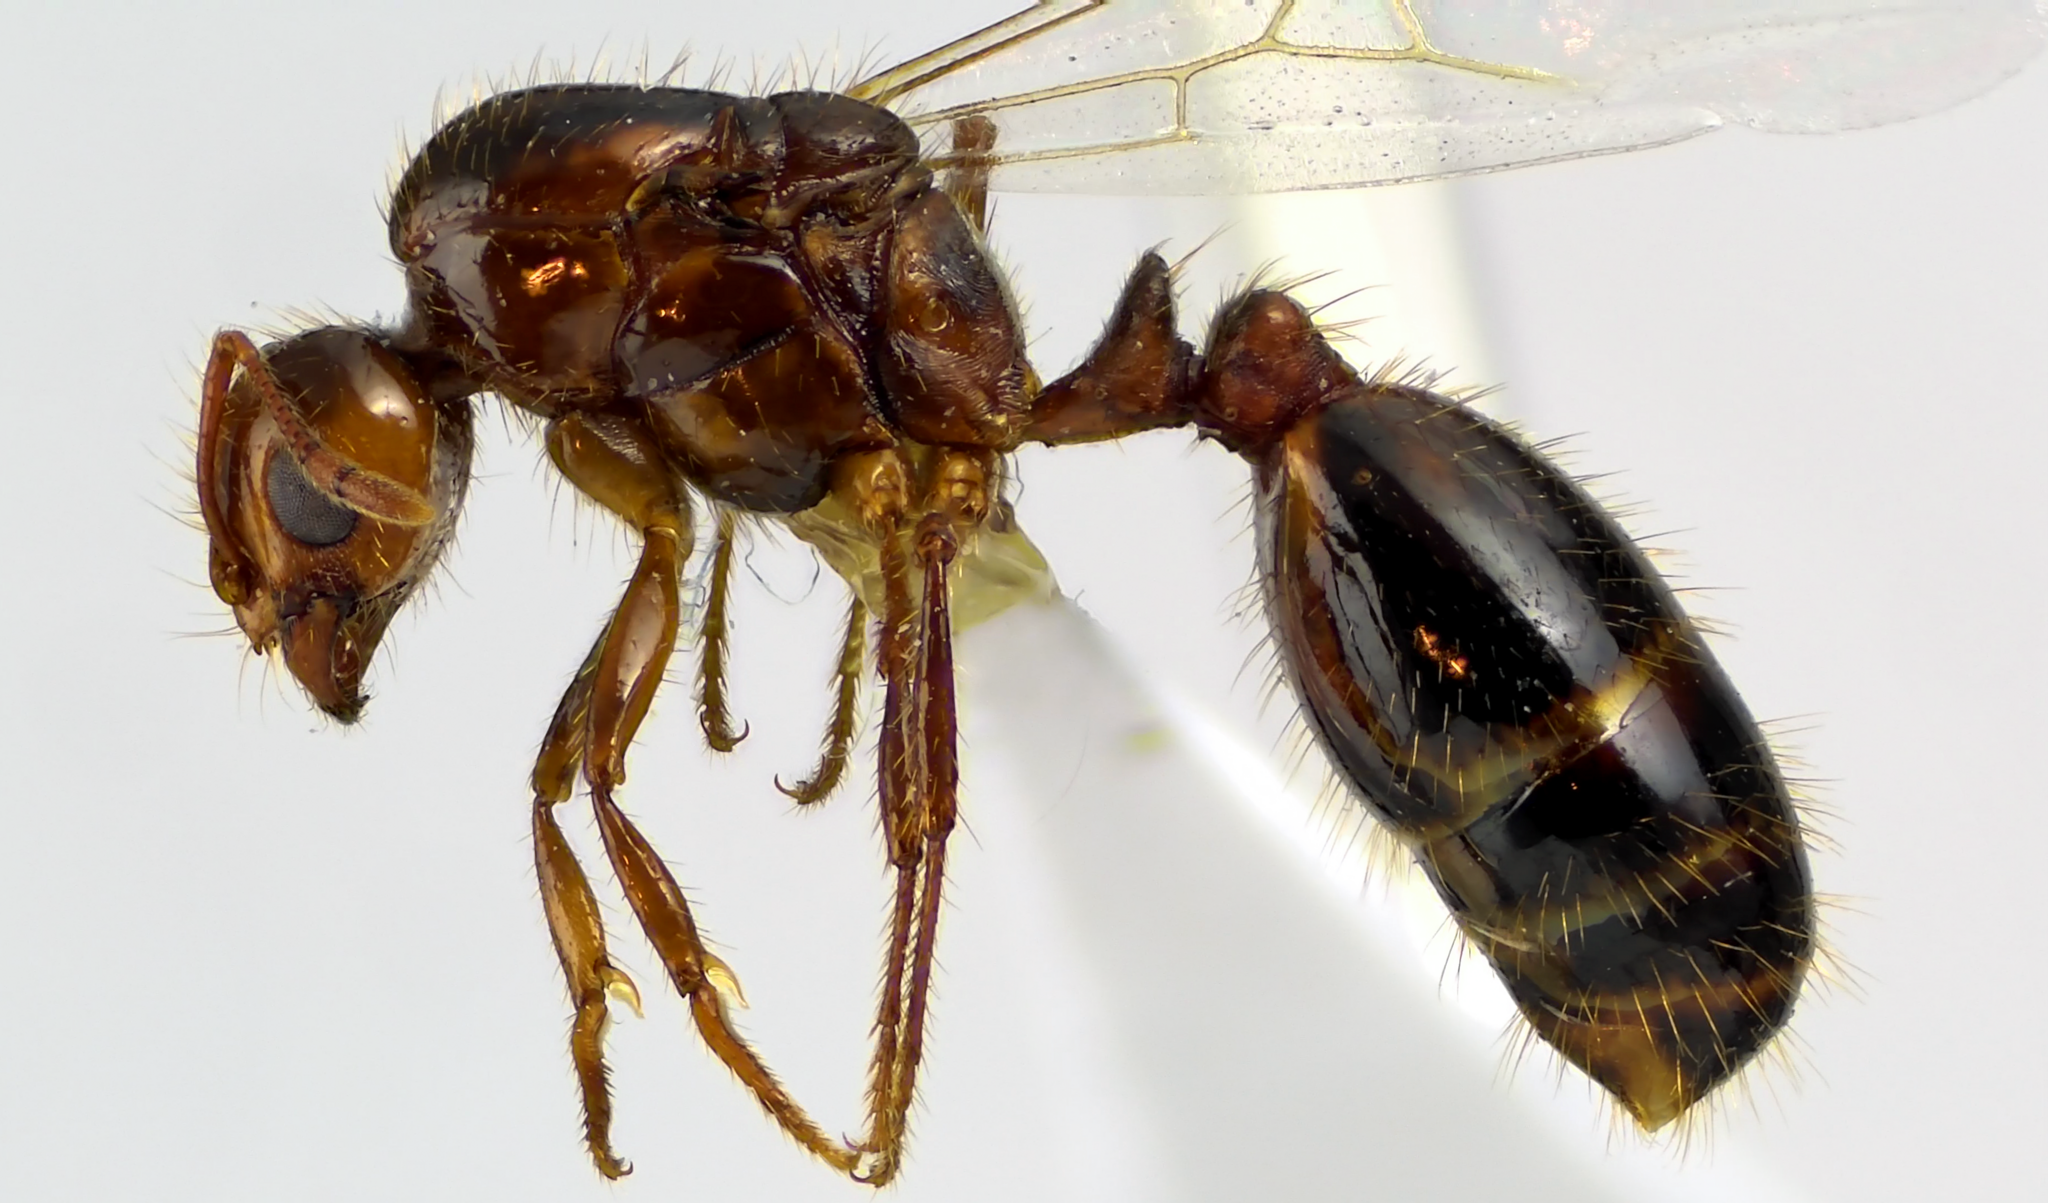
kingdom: Animalia
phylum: Arthropoda
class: Insecta
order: Hymenoptera
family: Formicidae
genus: Solenopsis
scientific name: Solenopsis invicta
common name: Red imported fire ant
